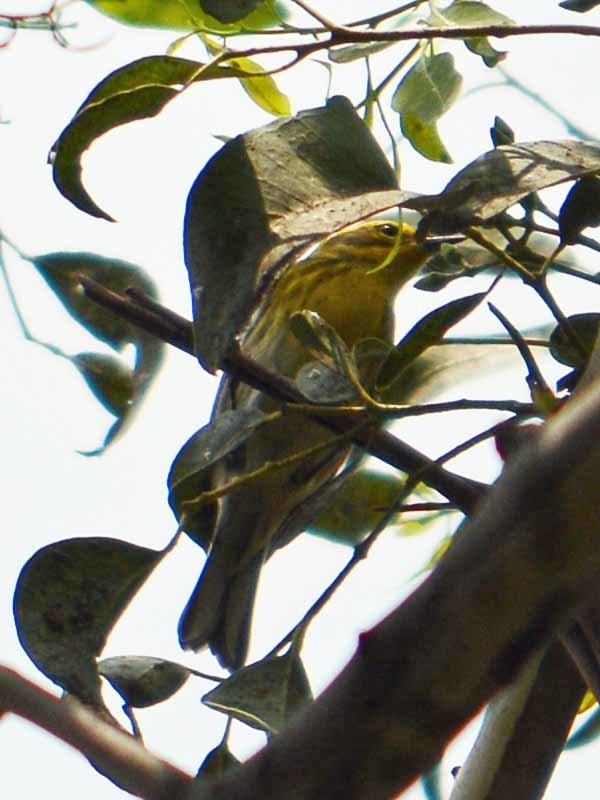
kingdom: Animalia
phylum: Chordata
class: Aves
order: Passeriformes
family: Parulidae
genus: Setophaga
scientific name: Setophaga townsendi
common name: Townsend's warbler
